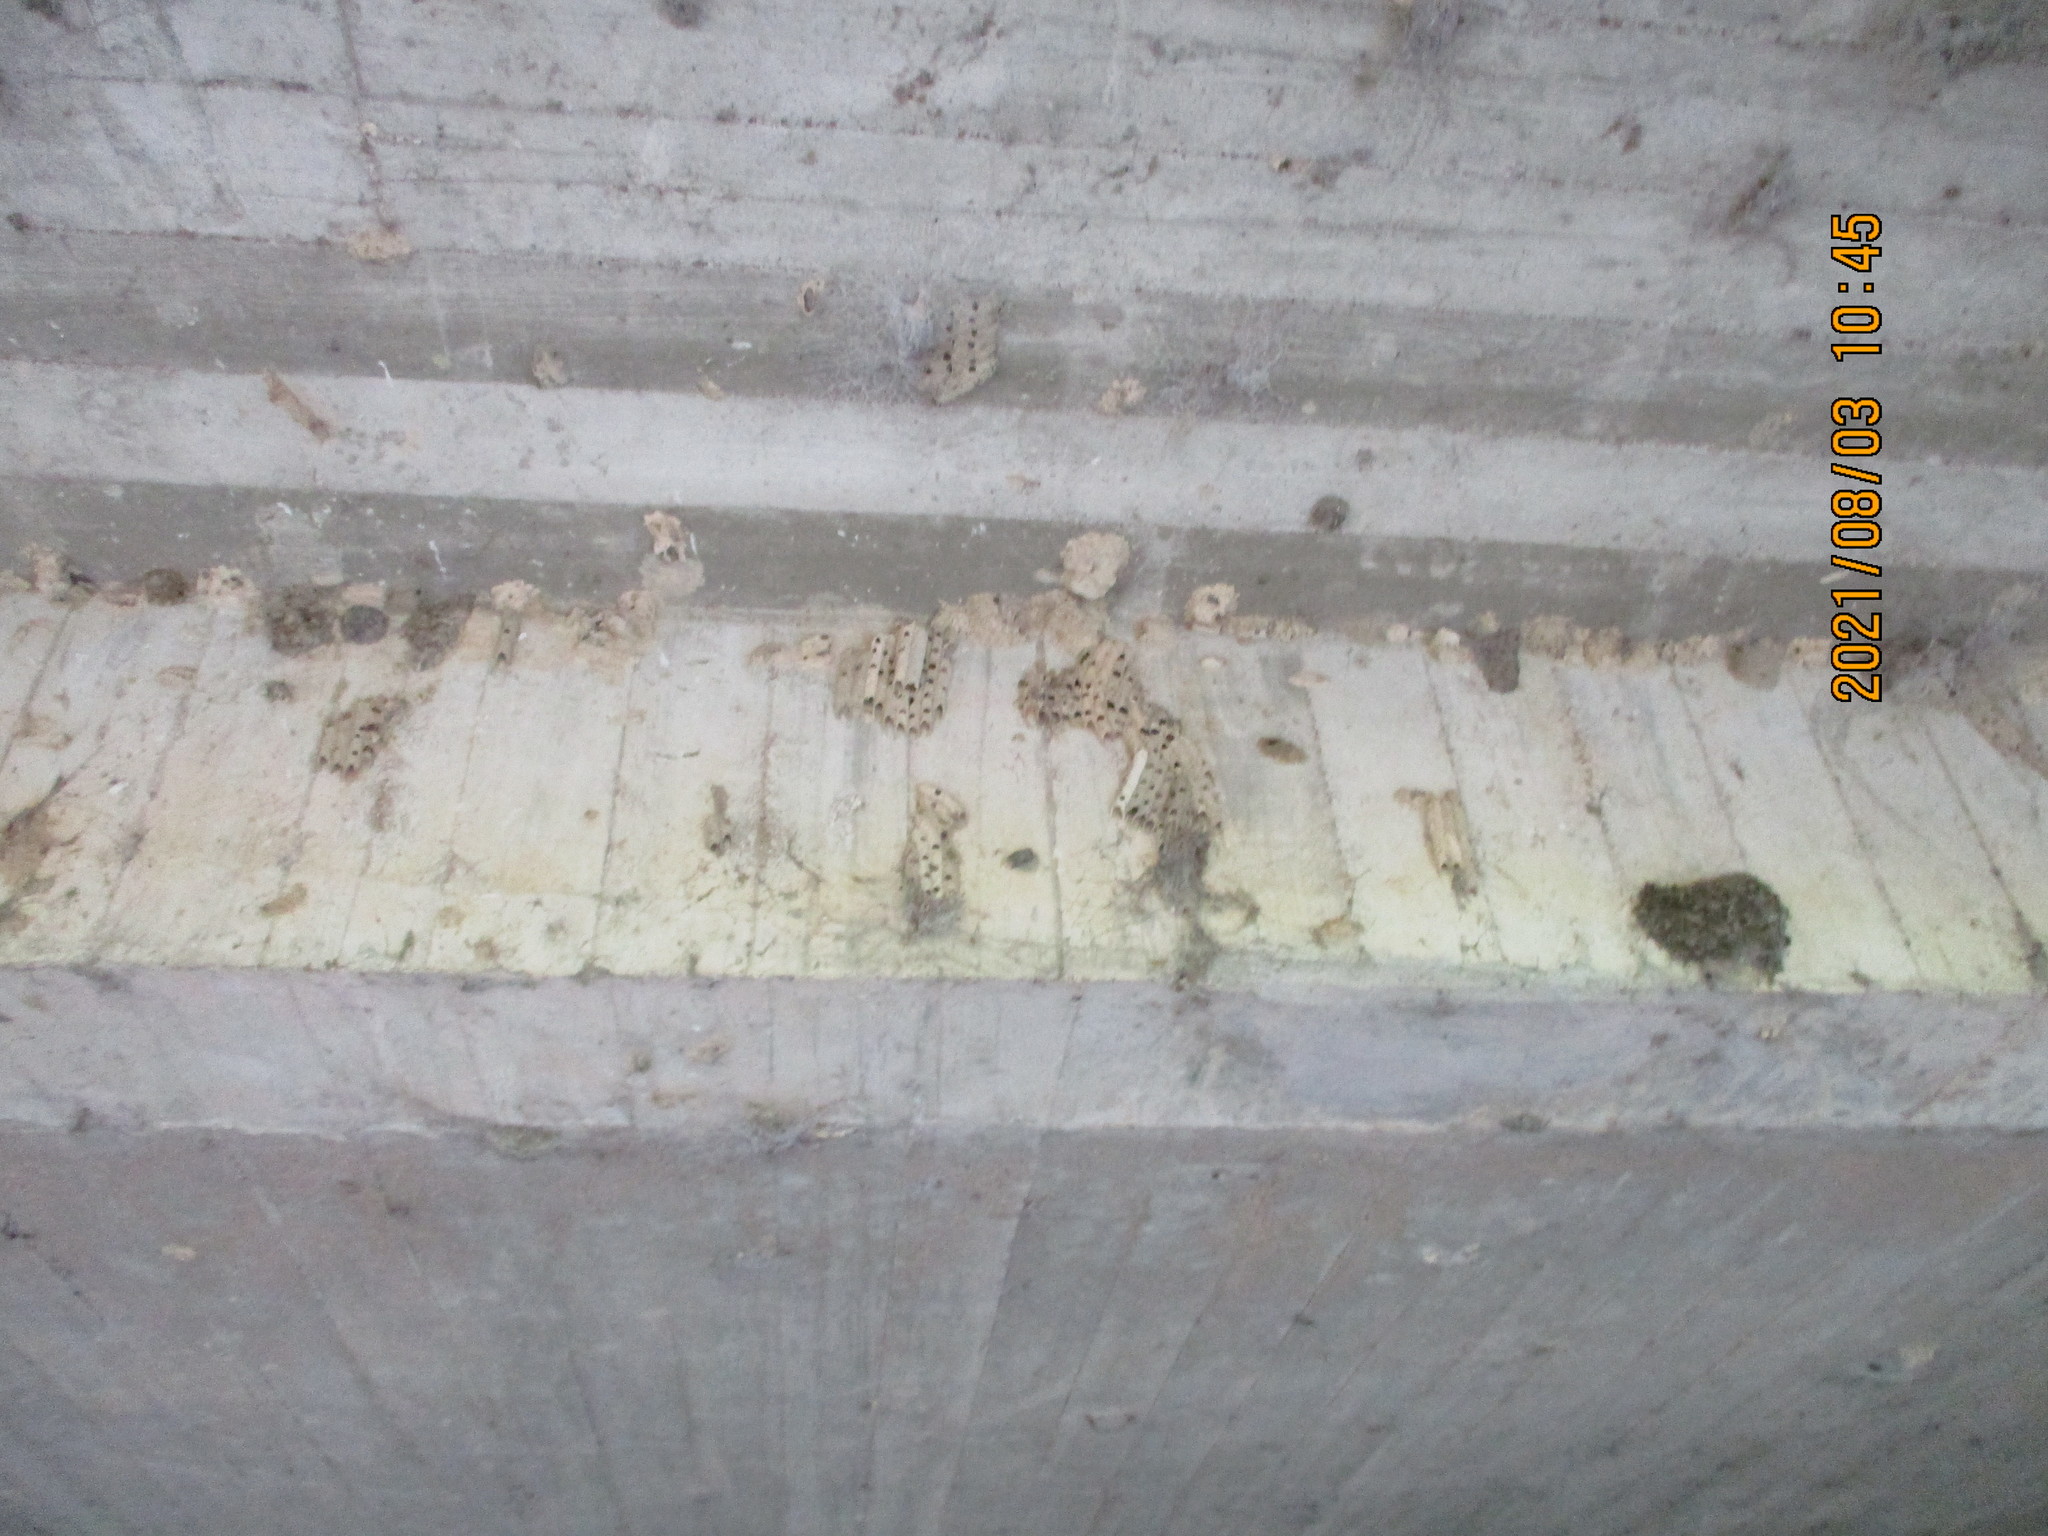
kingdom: Animalia
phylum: Arthropoda
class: Insecta
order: Hymenoptera
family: Crabronidae
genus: Trypoxylon
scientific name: Trypoxylon politum
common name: Organ-pipe mud-dauber wasp
